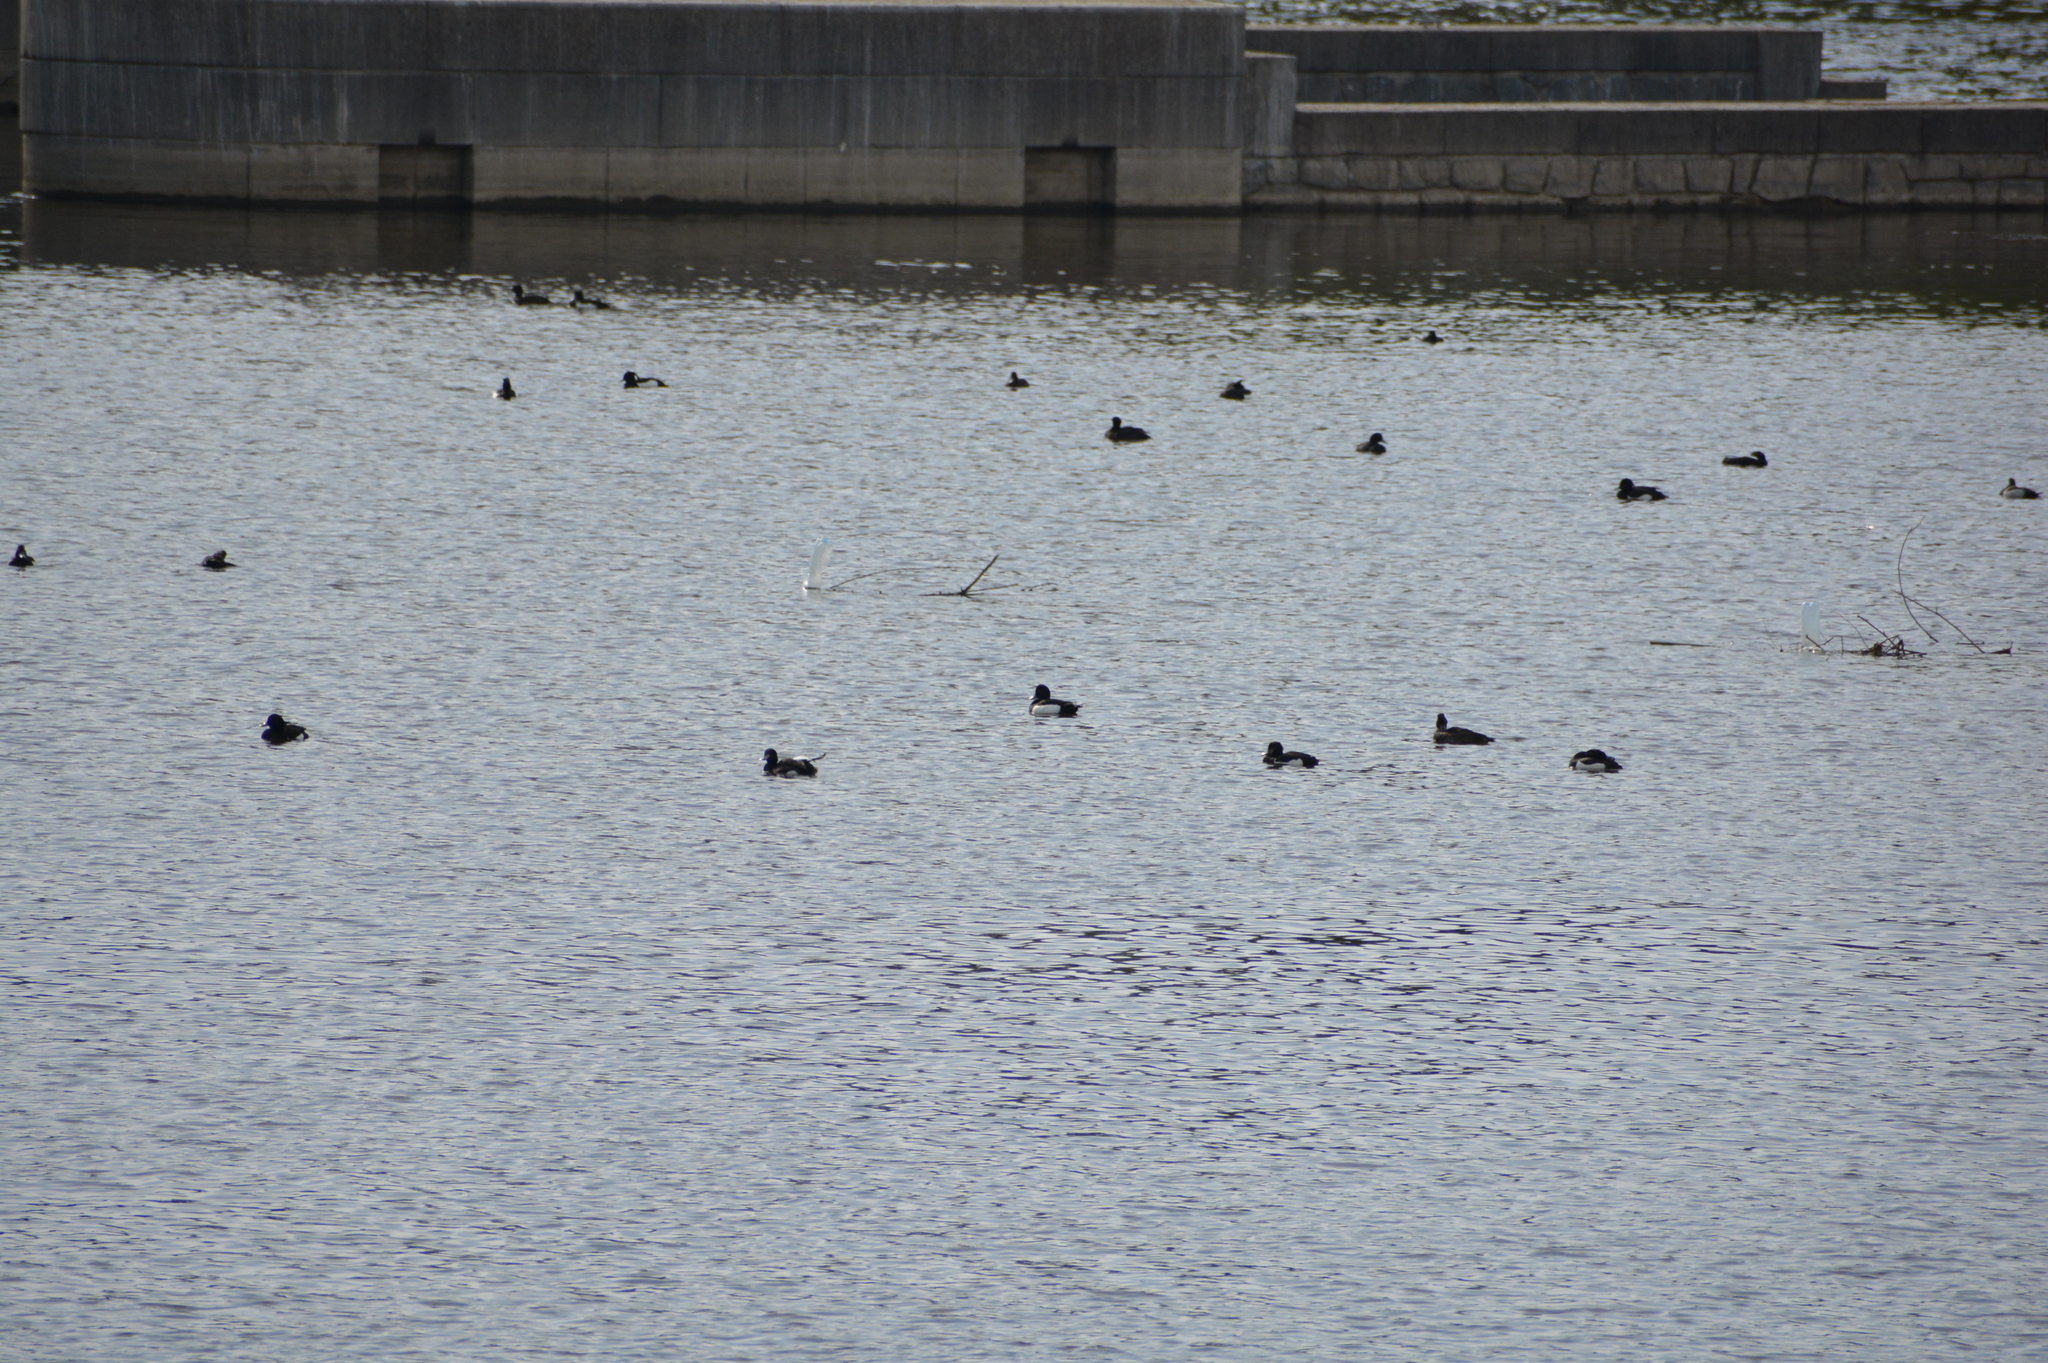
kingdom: Animalia
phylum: Chordata
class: Aves
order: Anseriformes
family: Anatidae
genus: Aythya
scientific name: Aythya fuligula
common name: Tufted duck
